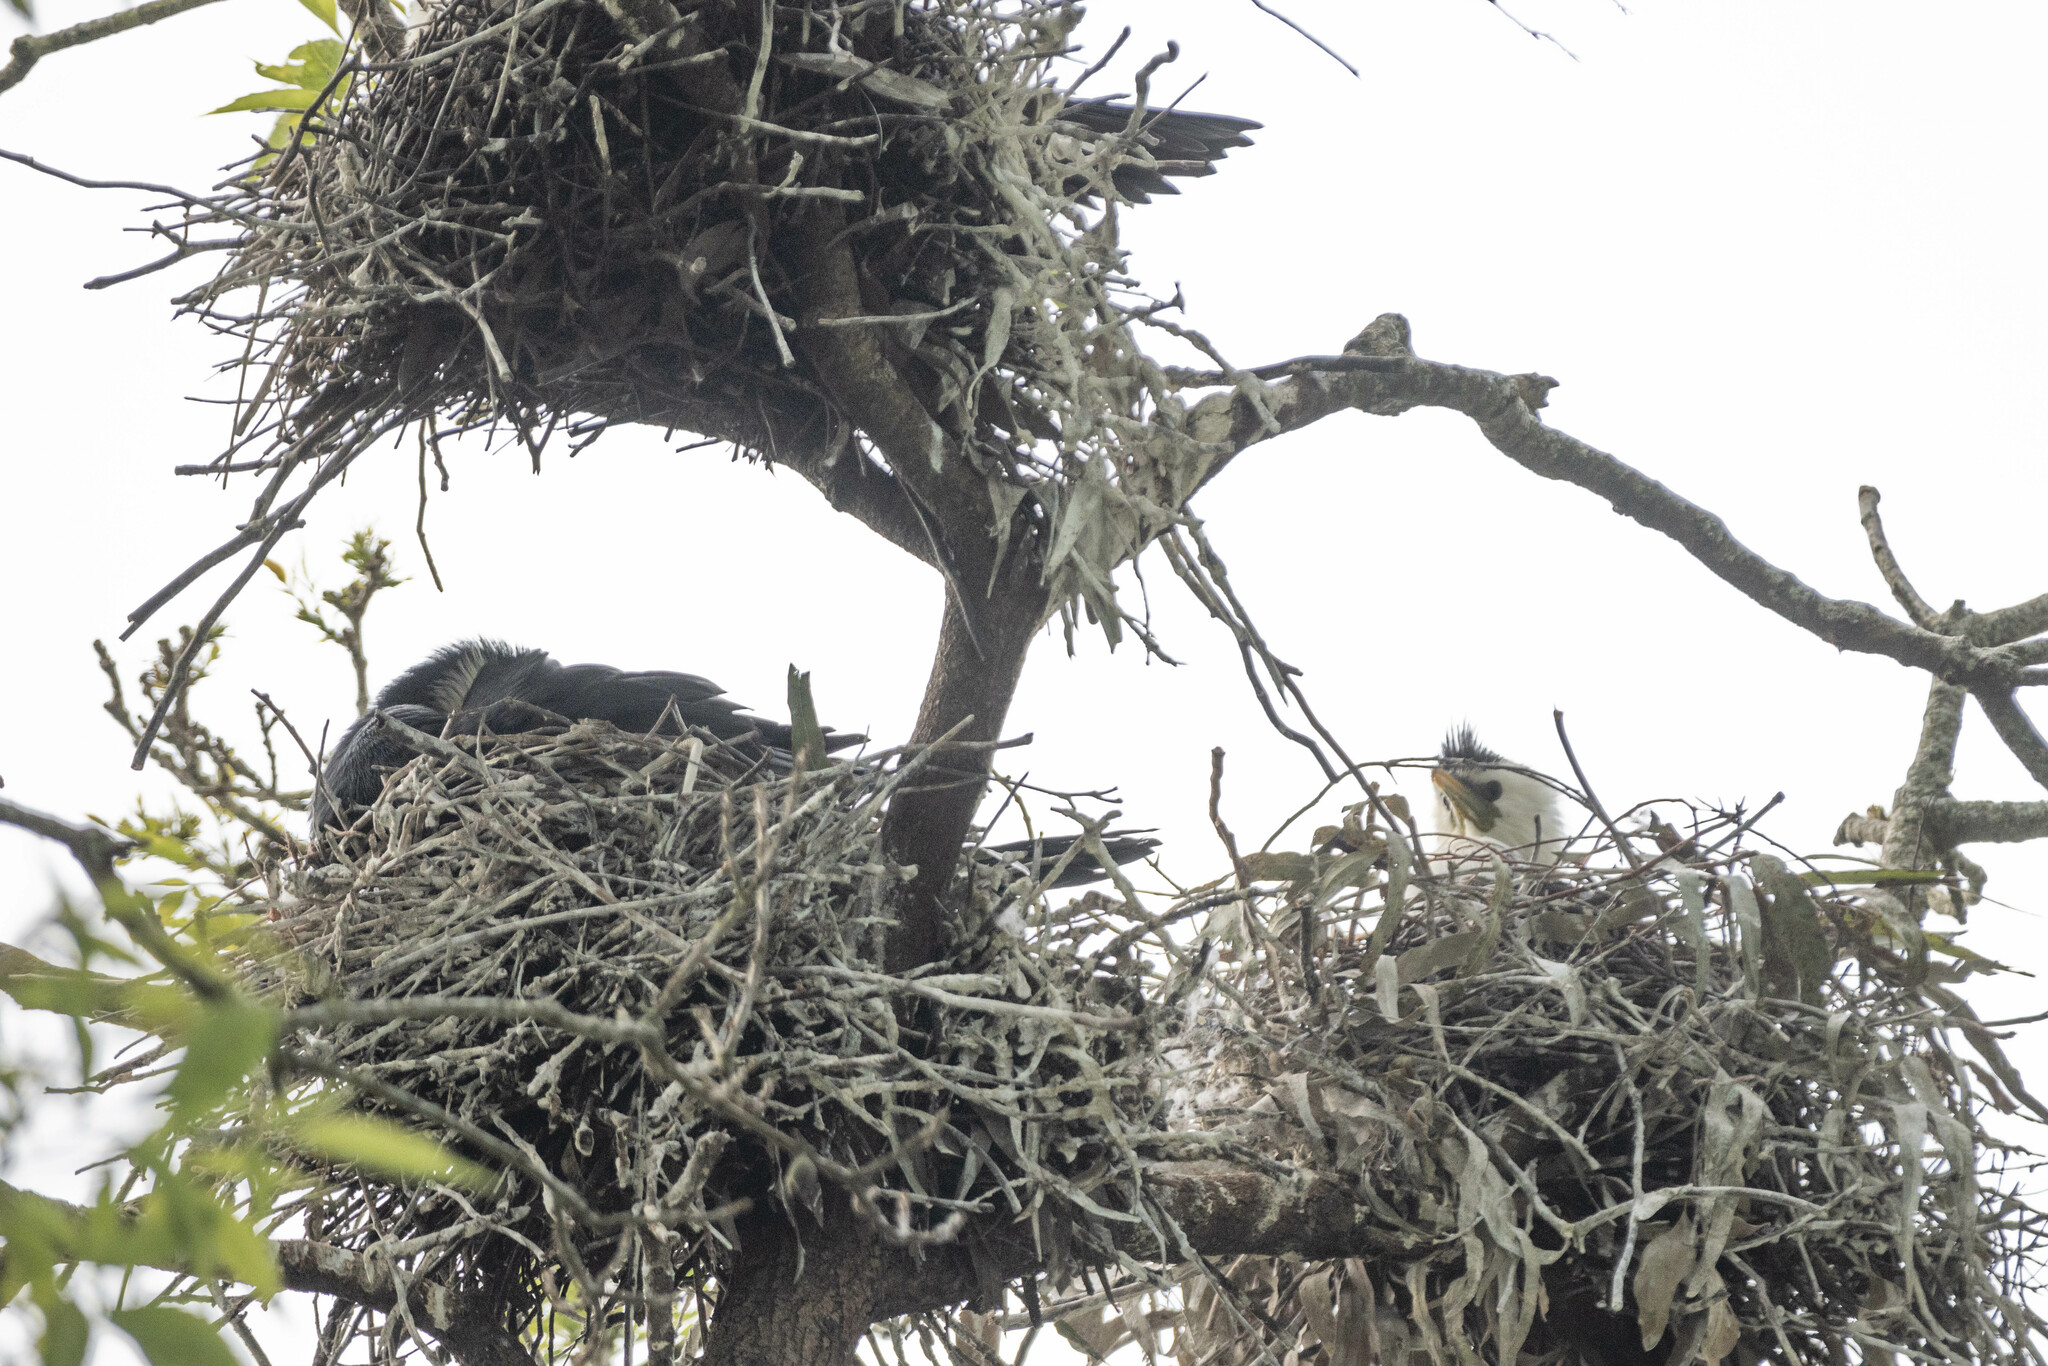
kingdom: Animalia
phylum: Chordata
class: Aves
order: Suliformes
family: Phalacrocoracidae
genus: Microcarbo
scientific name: Microcarbo melanoleucos
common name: Little pied cormorant
